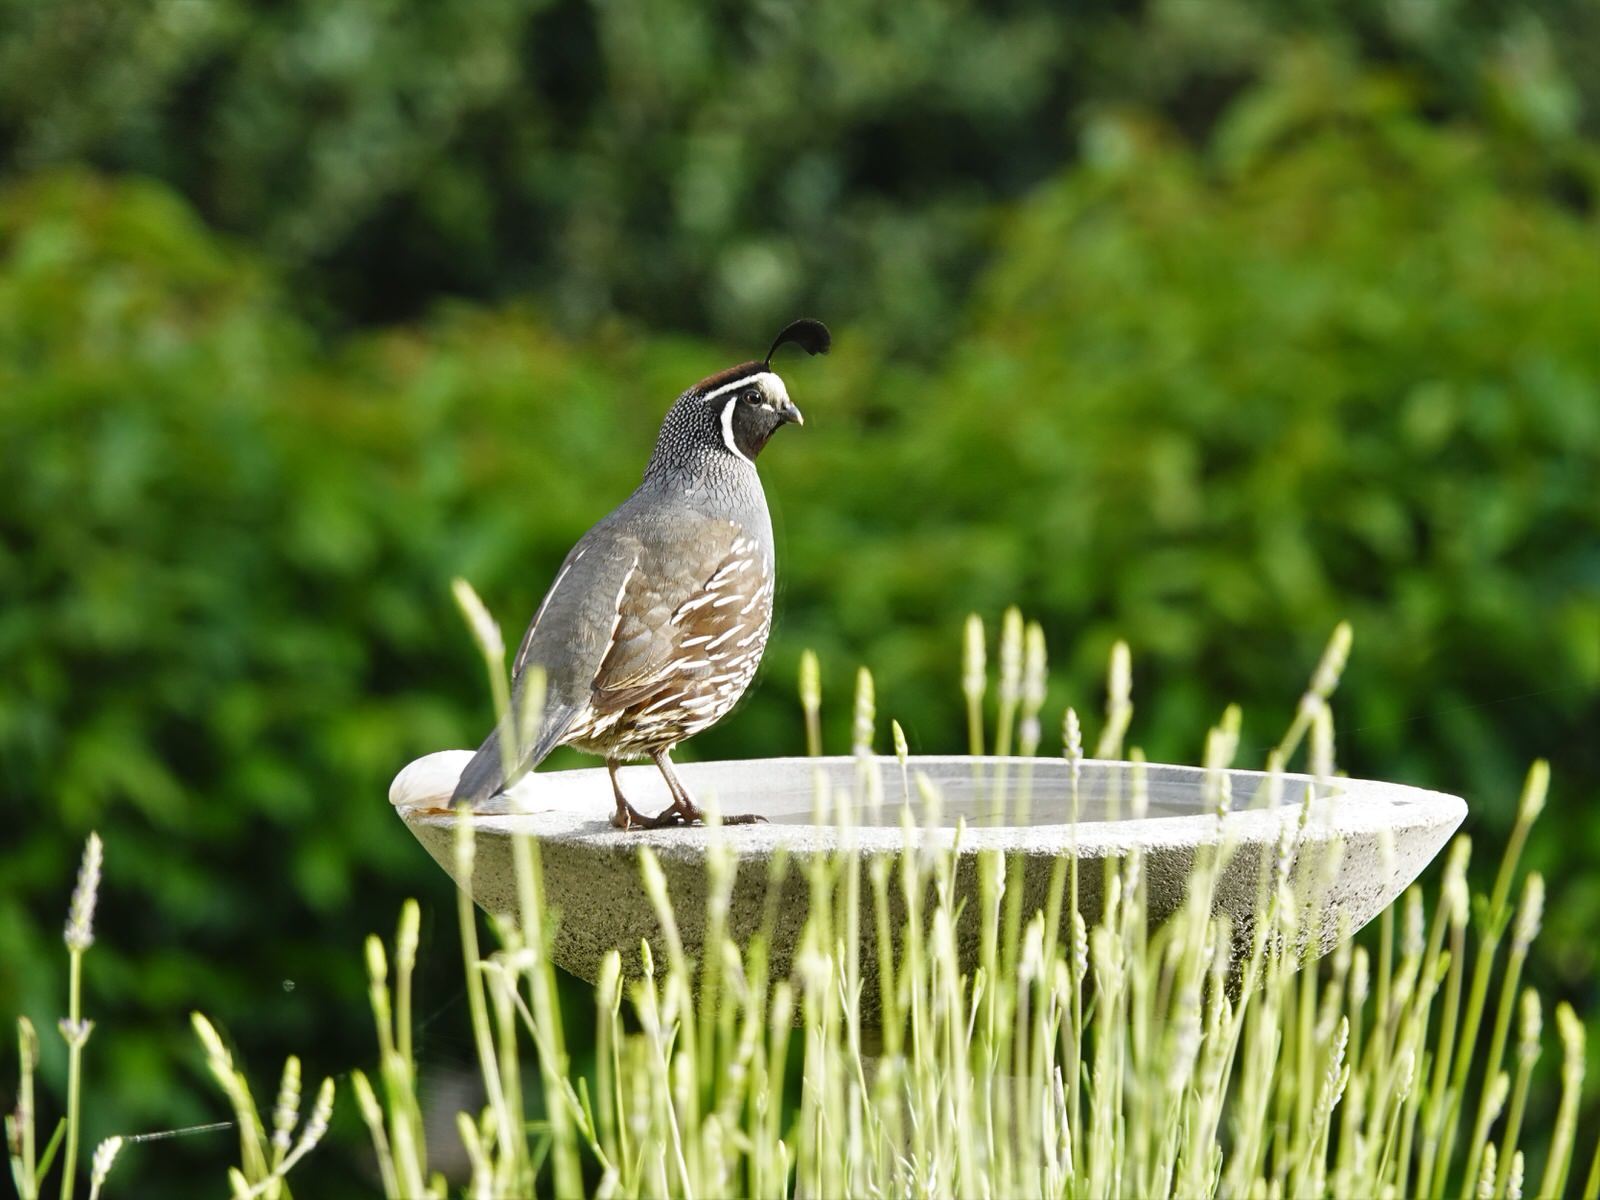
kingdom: Animalia
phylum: Chordata
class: Aves
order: Galliformes
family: Odontophoridae
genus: Callipepla
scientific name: Callipepla californica
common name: California quail
